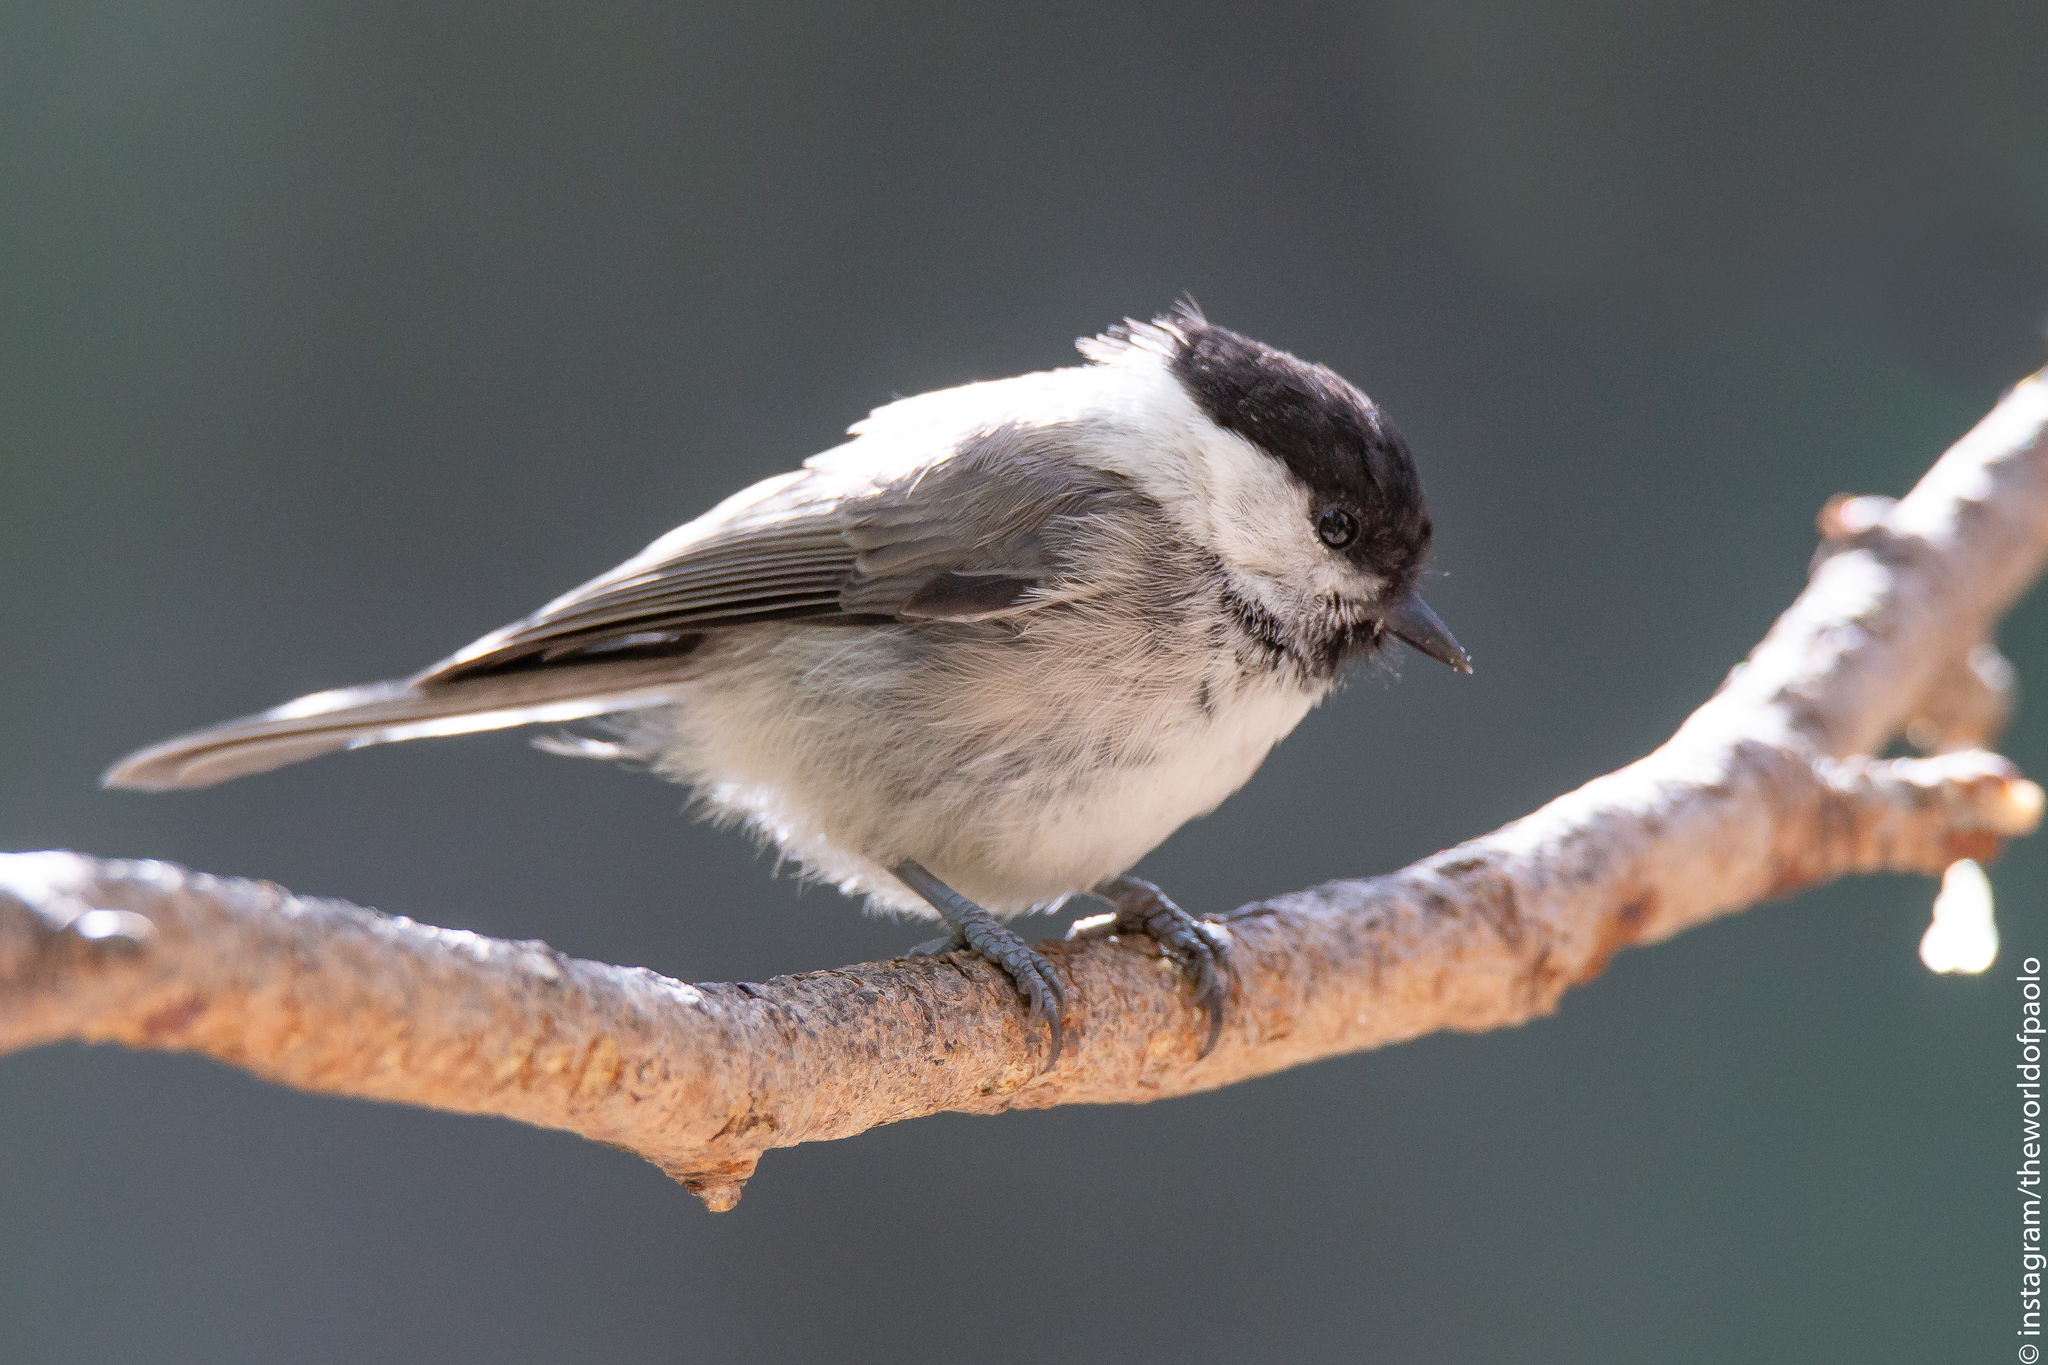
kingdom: Animalia
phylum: Chordata
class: Aves
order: Passeriformes
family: Paridae
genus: Poecile
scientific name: Poecile montanus
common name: Willow tit
